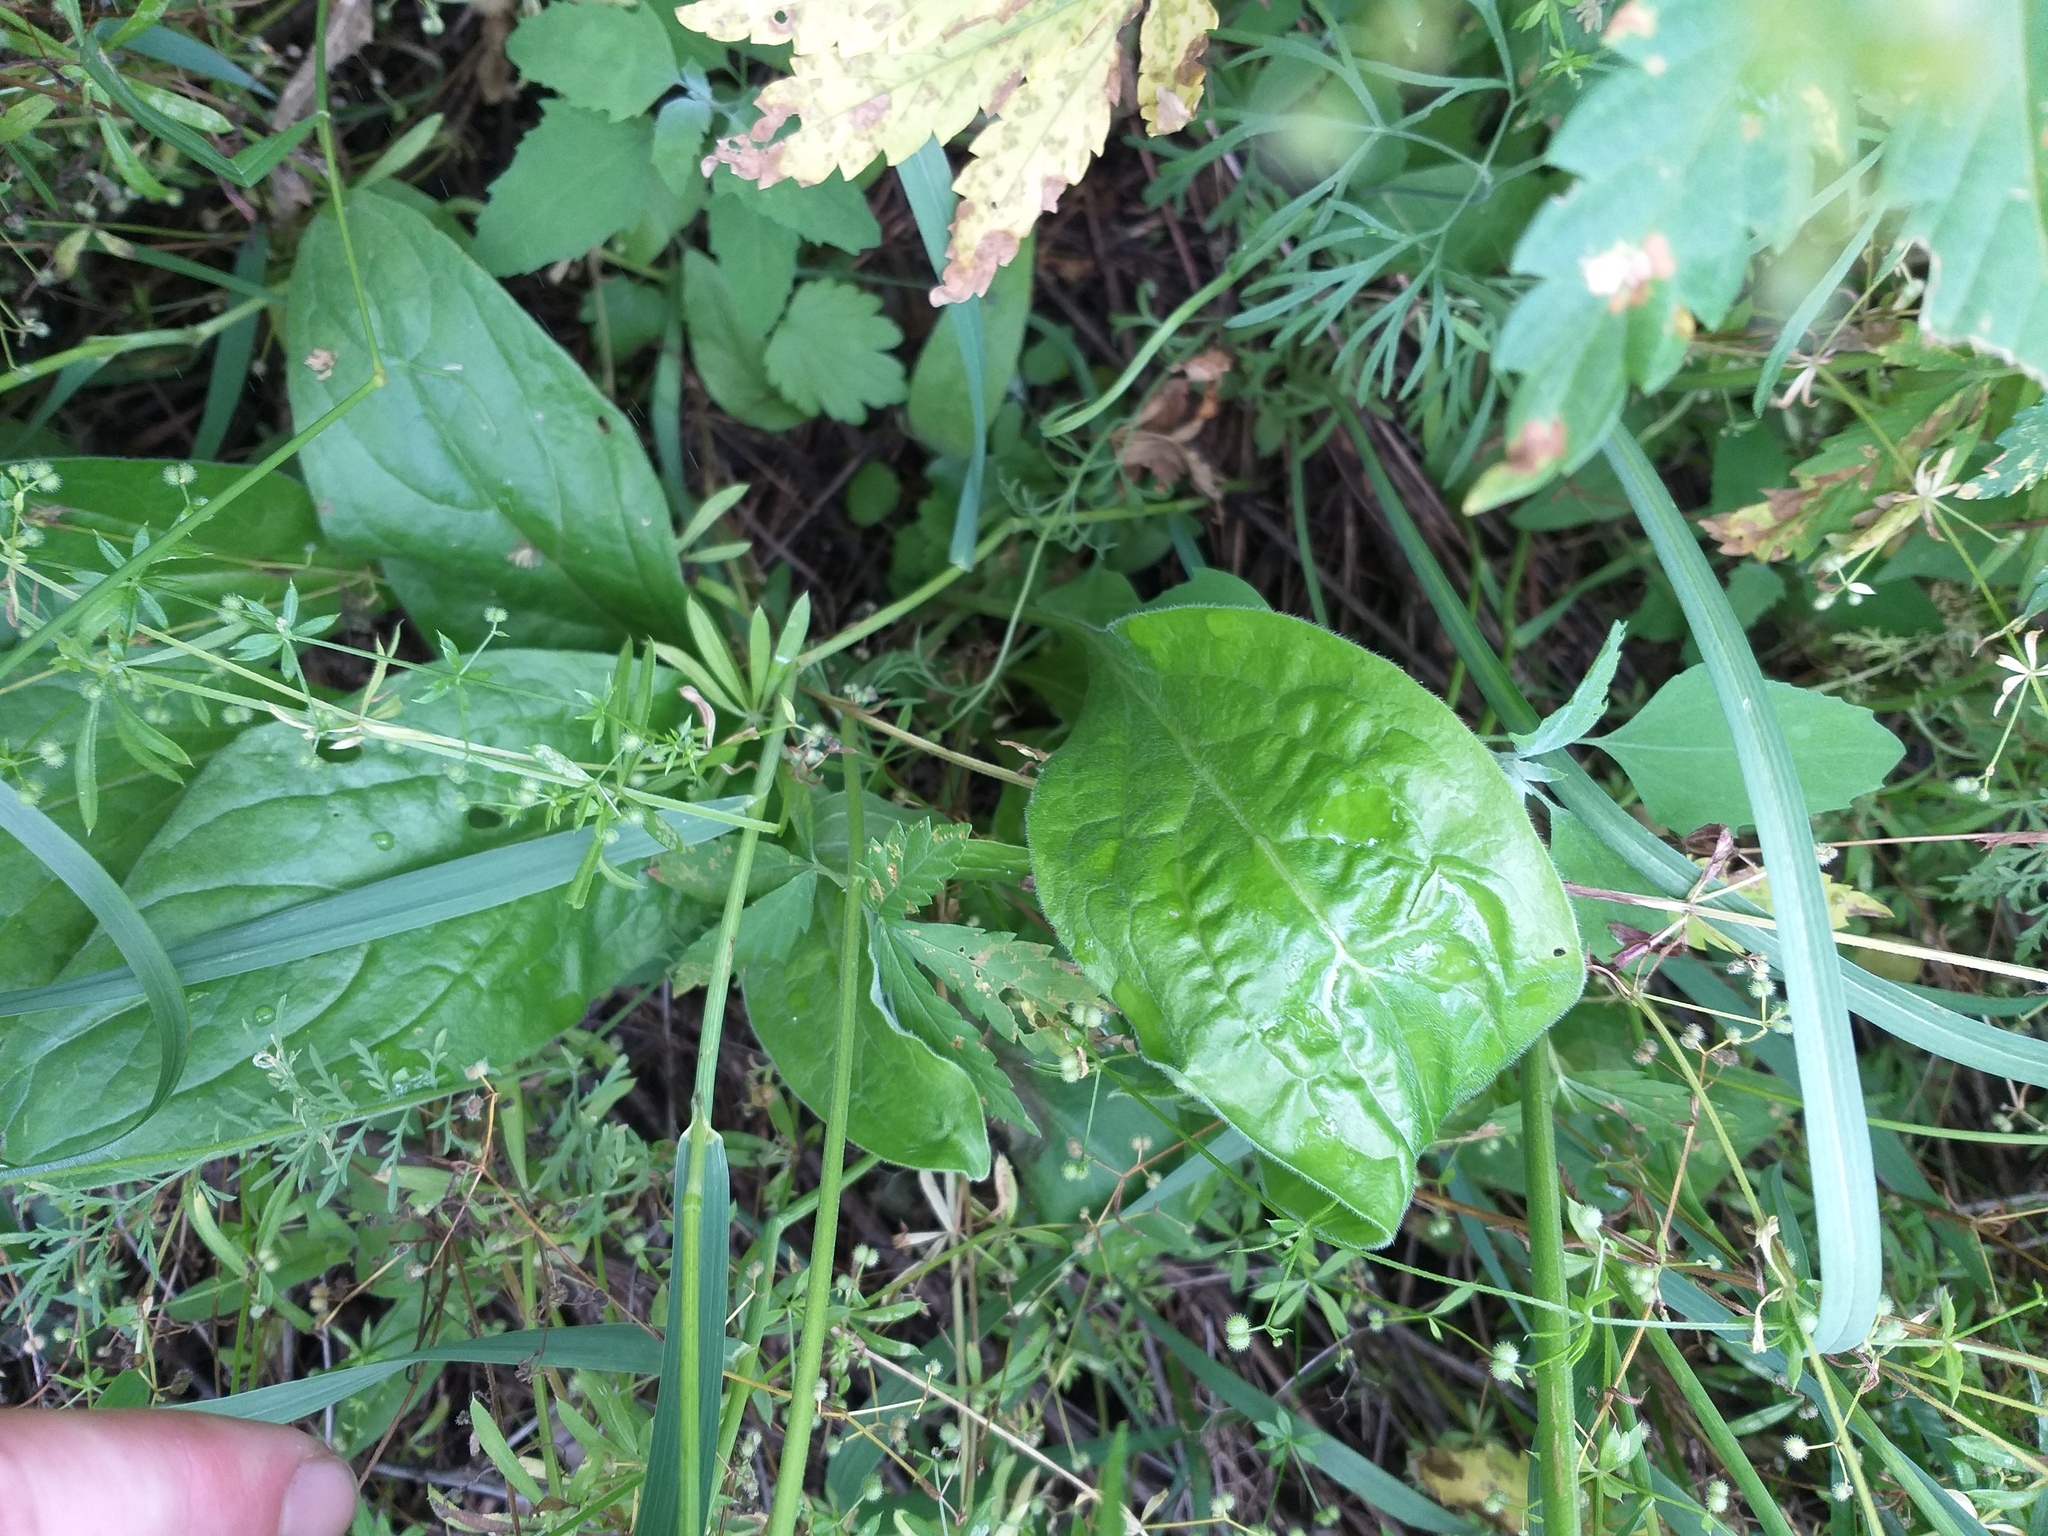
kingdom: Plantae
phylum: Tracheophyta
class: Magnoliopsida
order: Boraginales
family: Boraginaceae
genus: Cynoglossum
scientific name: Cynoglossum officinale
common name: Hound's-tongue
